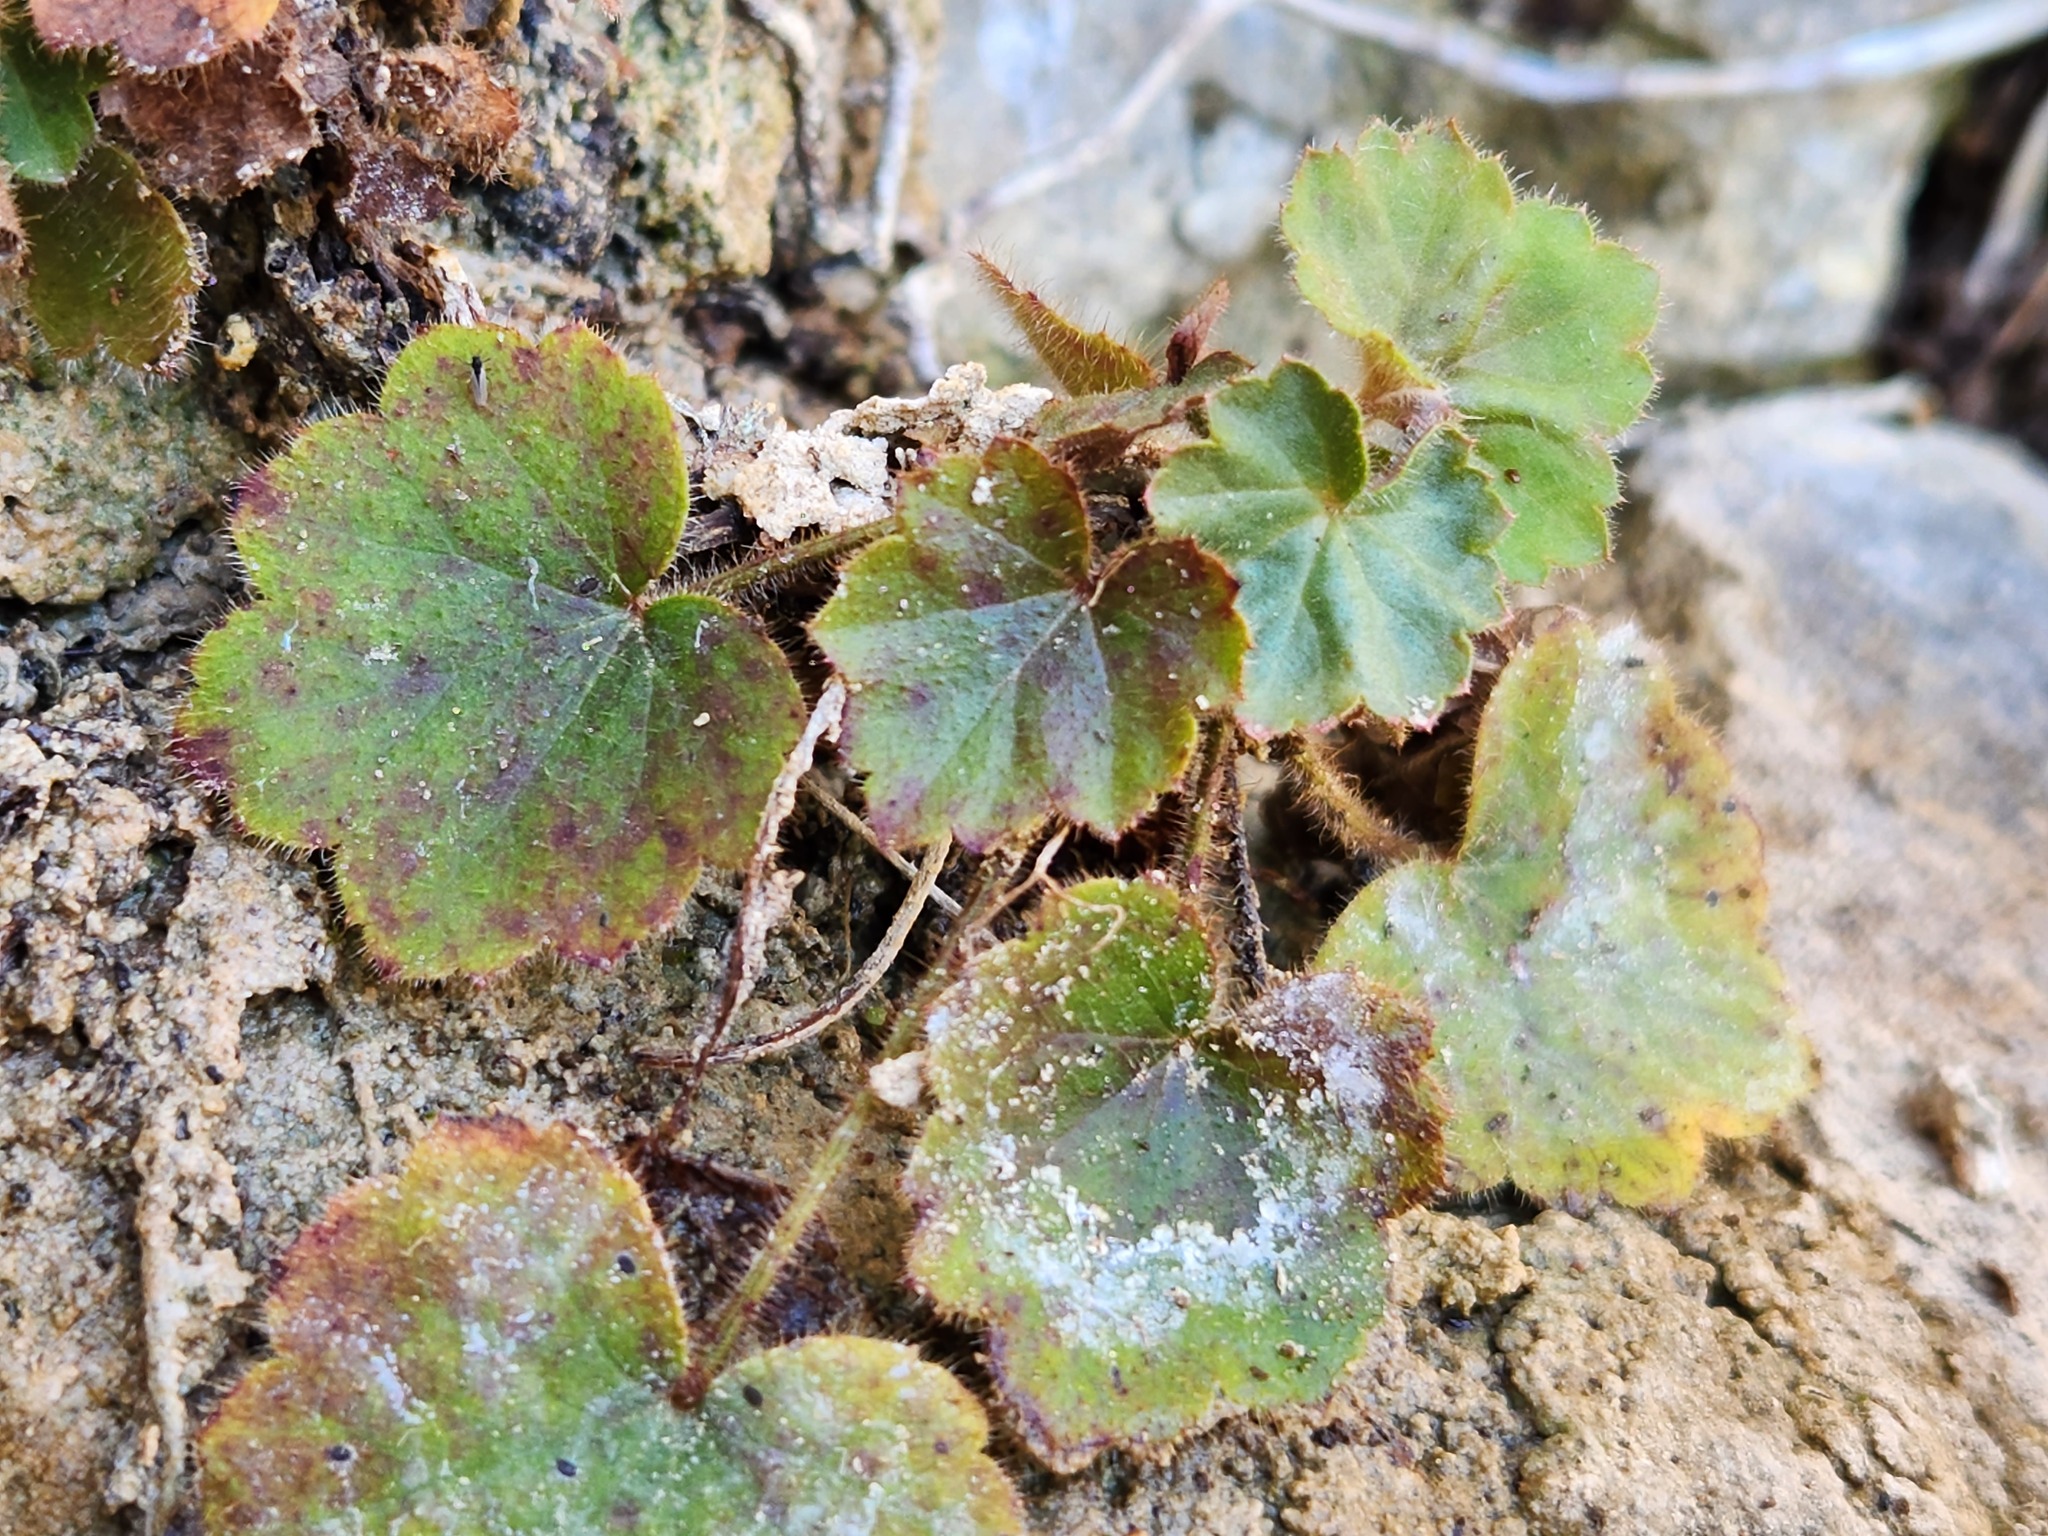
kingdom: Plantae
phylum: Tracheophyta
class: Magnoliopsida
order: Saxifragales
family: Saxifragaceae
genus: Heuchera
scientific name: Heuchera villosa
